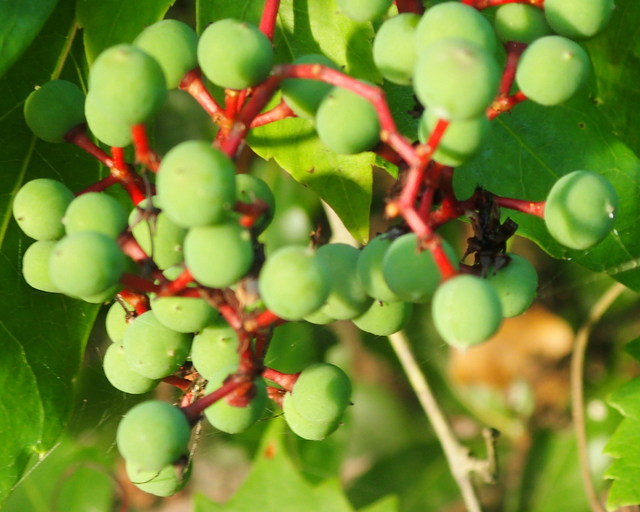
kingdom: Plantae
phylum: Tracheophyta
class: Magnoliopsida
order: Vitales
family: Vitaceae
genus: Parthenocissus
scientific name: Parthenocissus quinquefolia
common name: Virginia-creeper
